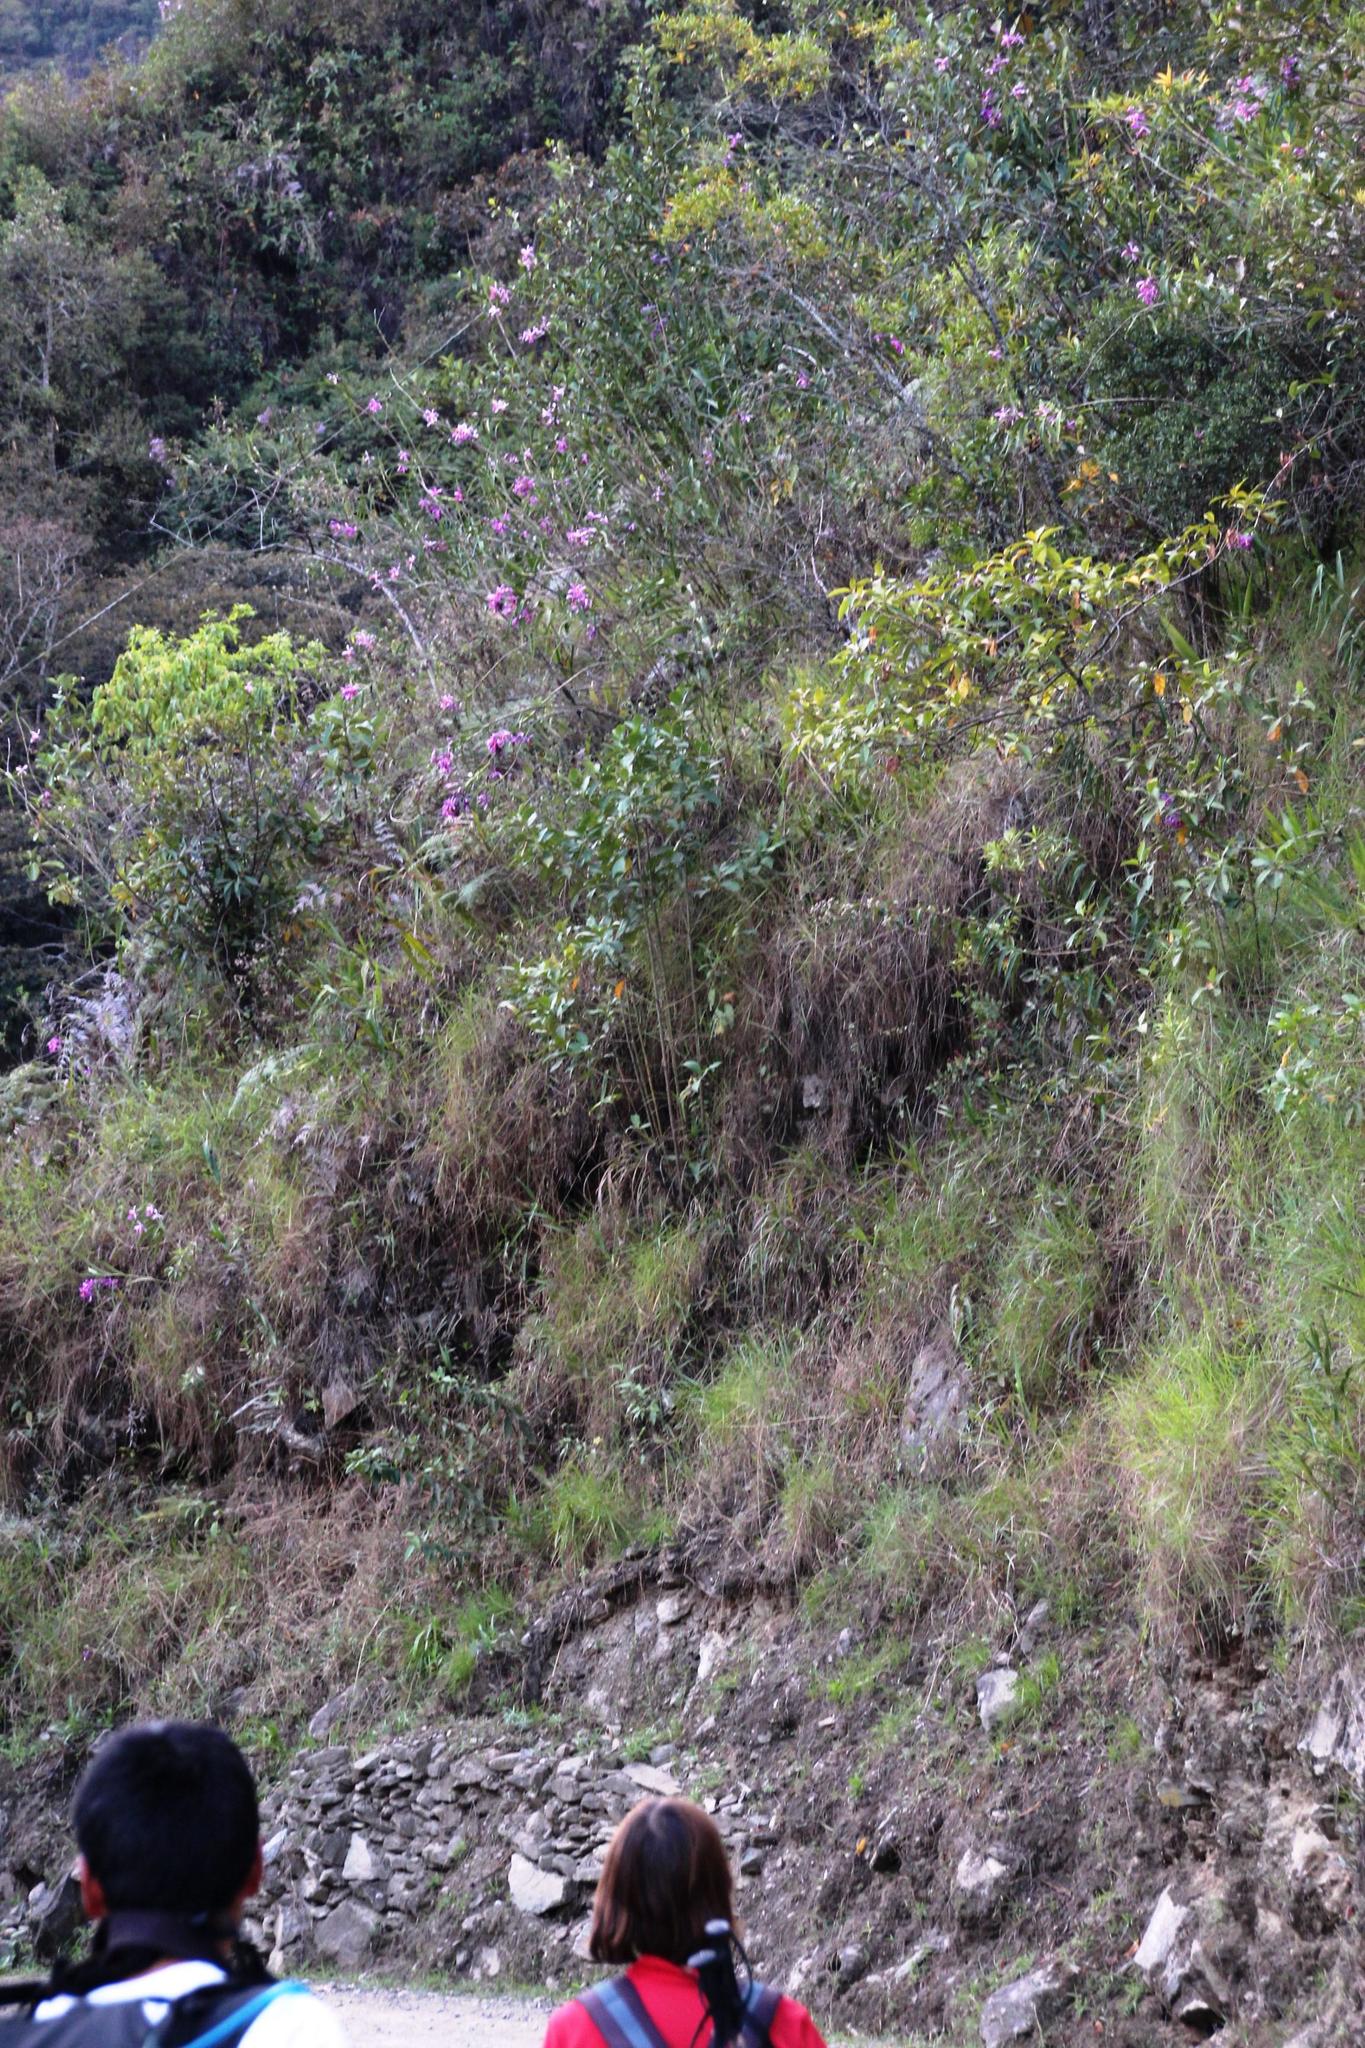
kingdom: Plantae
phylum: Tracheophyta
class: Liliopsida
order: Asparagales
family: Orchidaceae
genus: Sobralia
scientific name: Sobralia dichotoma
